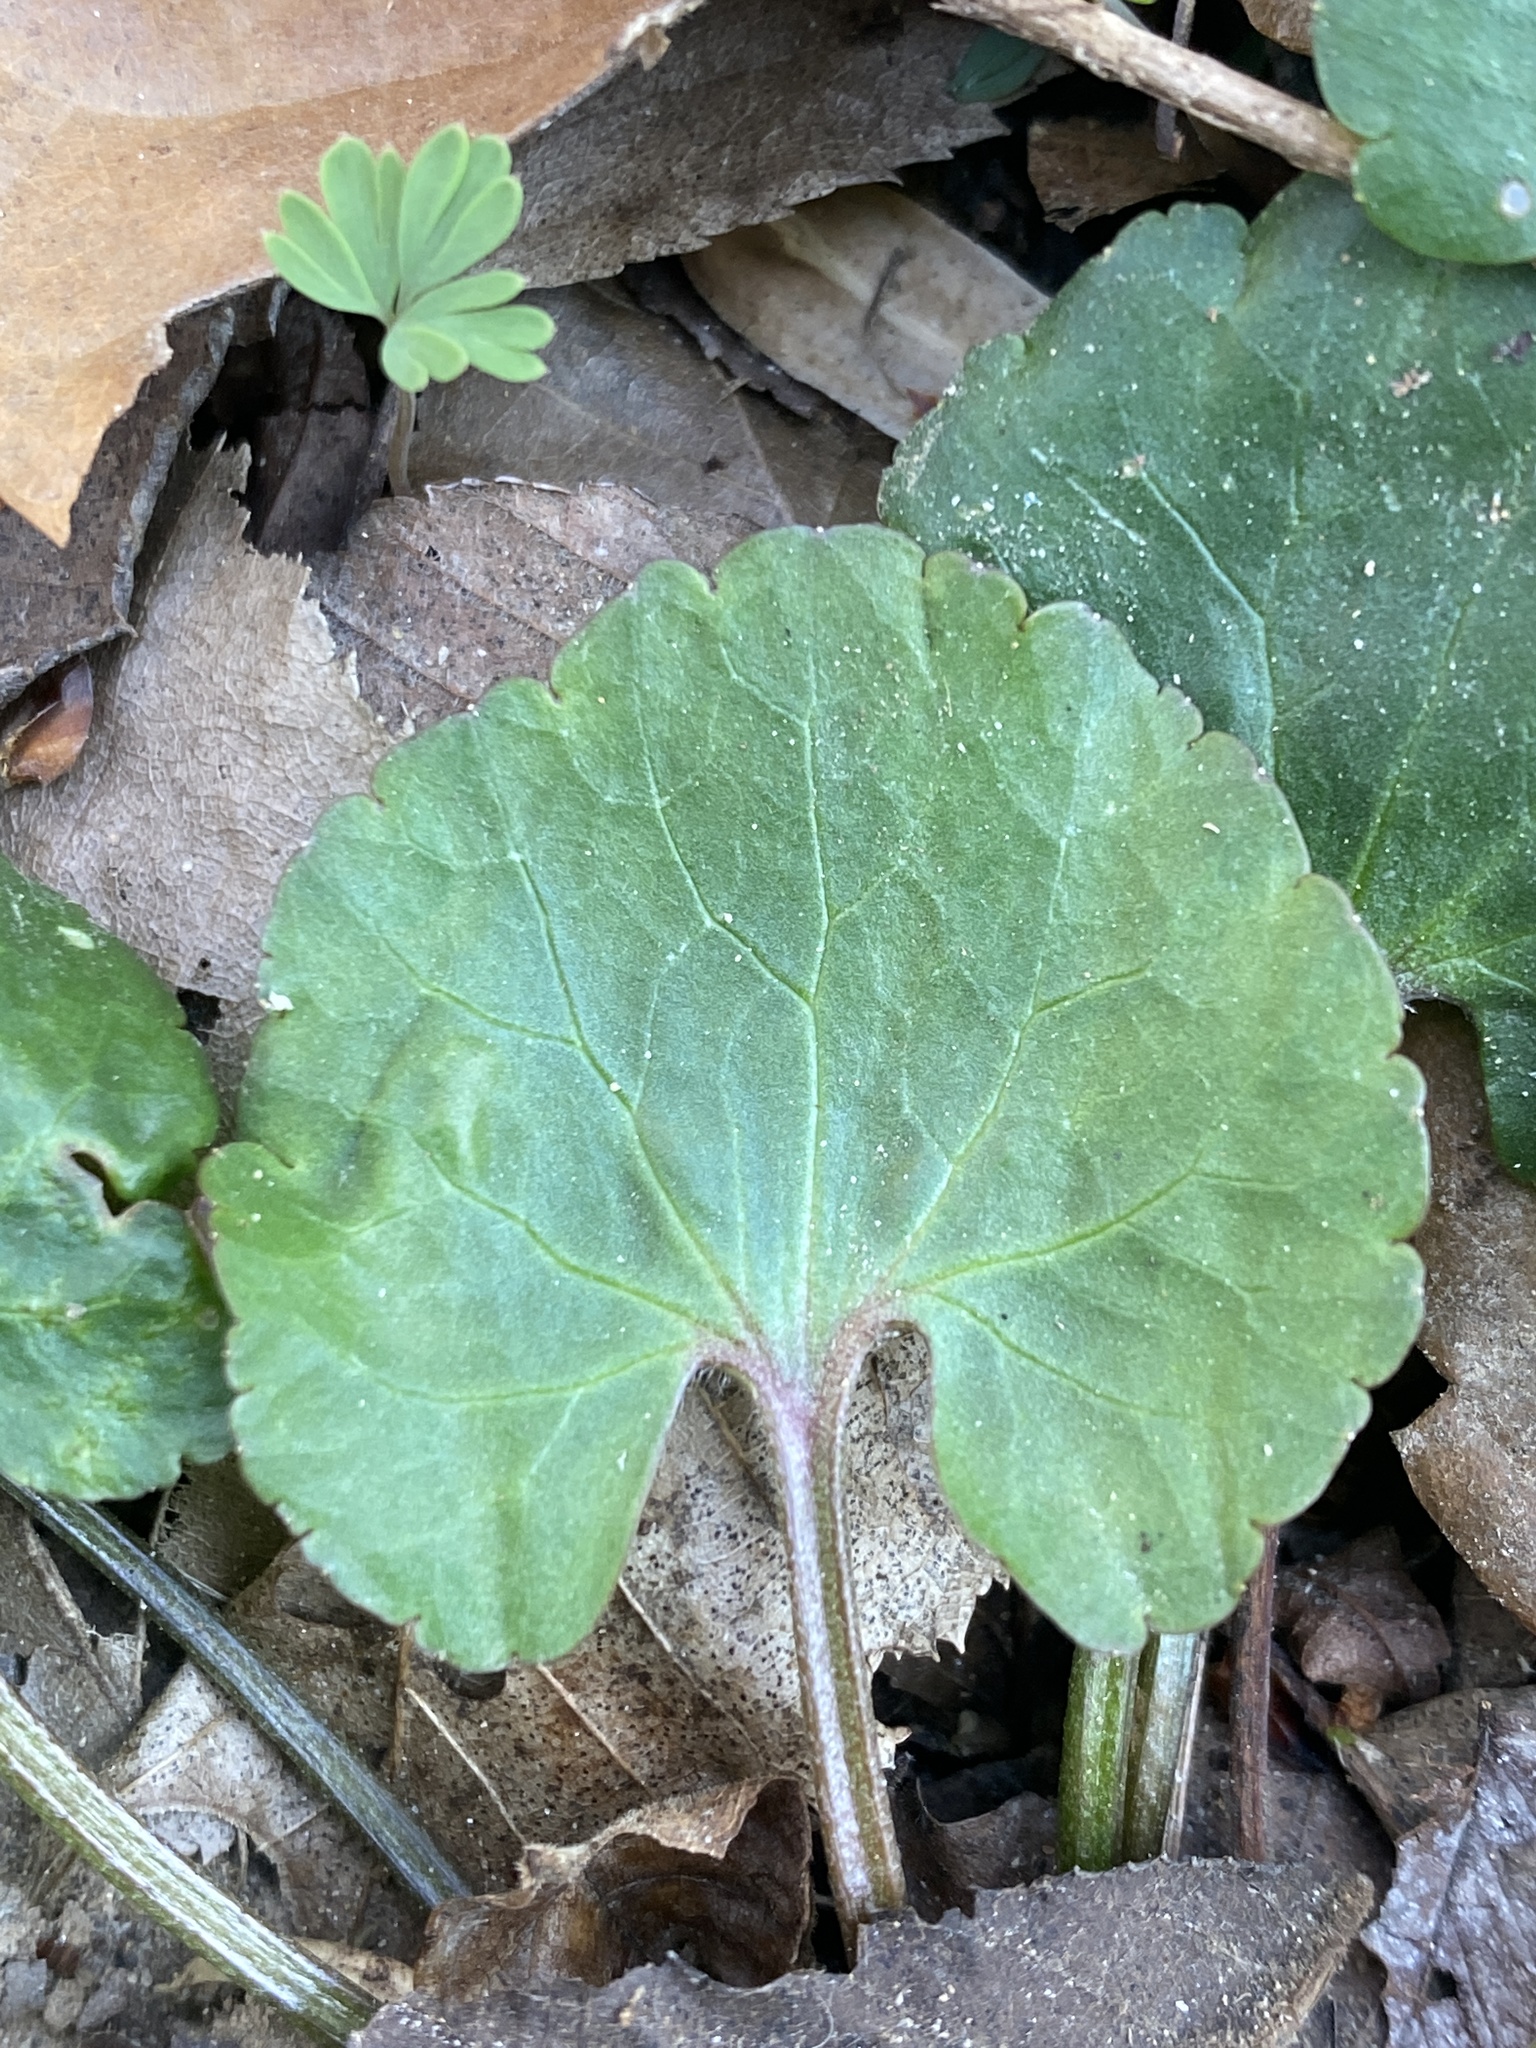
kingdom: Plantae
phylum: Tracheophyta
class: Magnoliopsida
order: Ranunculales
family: Ranunculaceae
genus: Ranunculus
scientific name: Ranunculus abortivus
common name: Early wood buttercup
